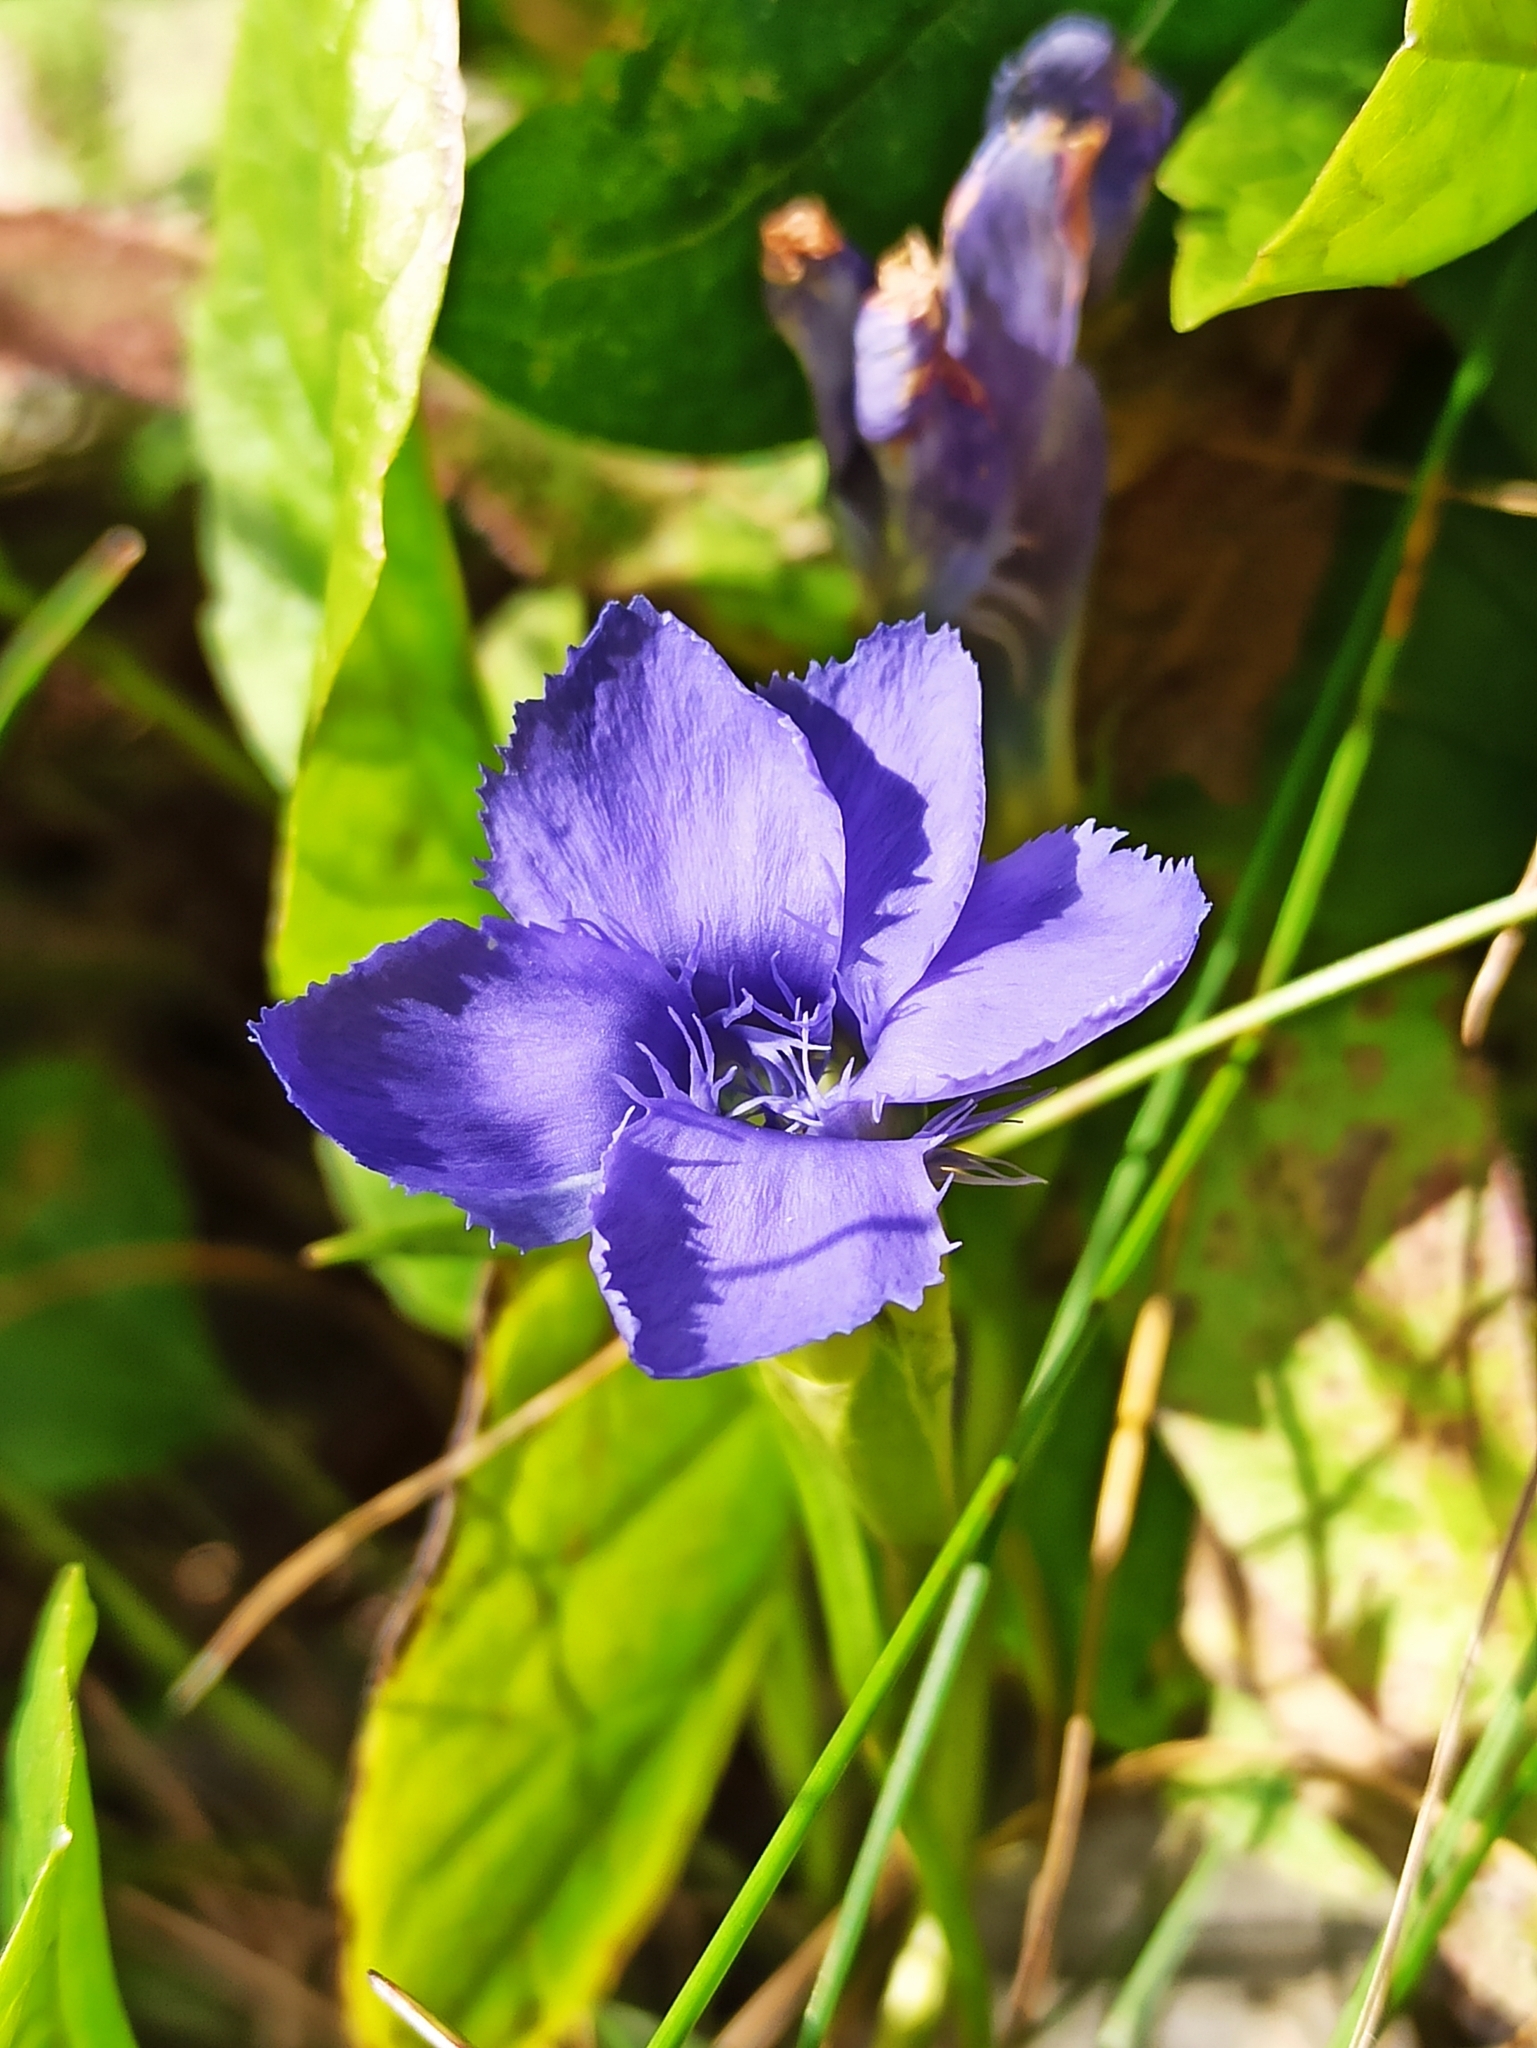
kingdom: Plantae
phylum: Tracheophyta
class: Magnoliopsida
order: Gentianales
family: Gentianaceae
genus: Gentianopsis
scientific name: Gentianopsis ciliata
